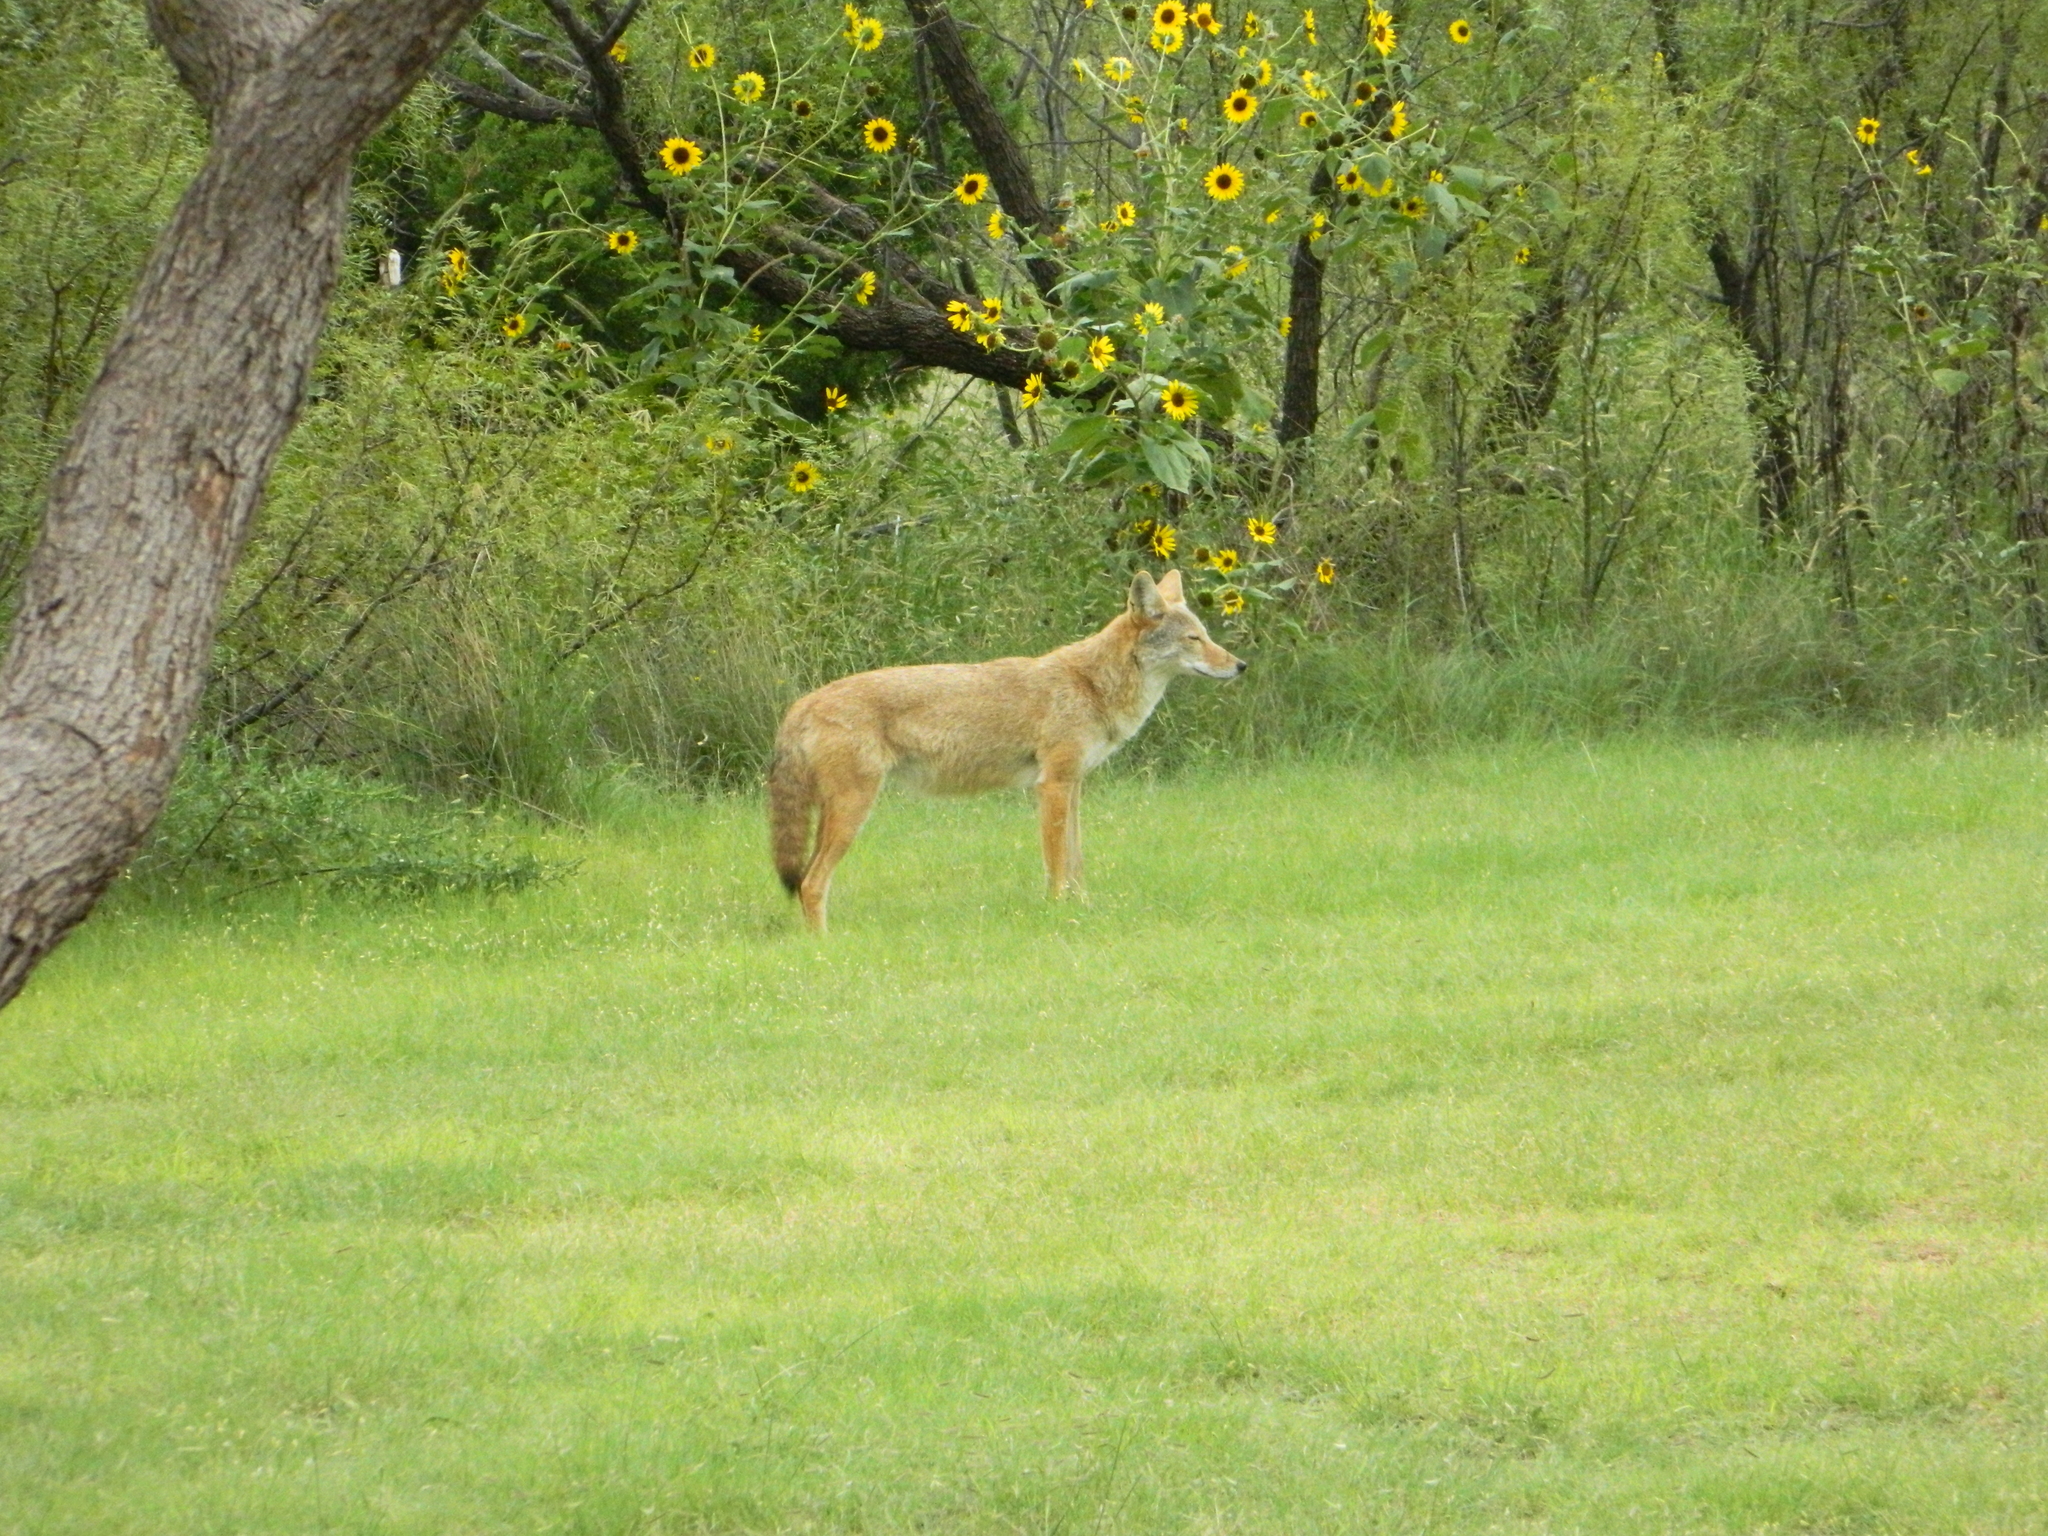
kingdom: Animalia
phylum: Chordata
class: Mammalia
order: Carnivora
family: Canidae
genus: Canis
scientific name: Canis latrans
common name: Coyote
